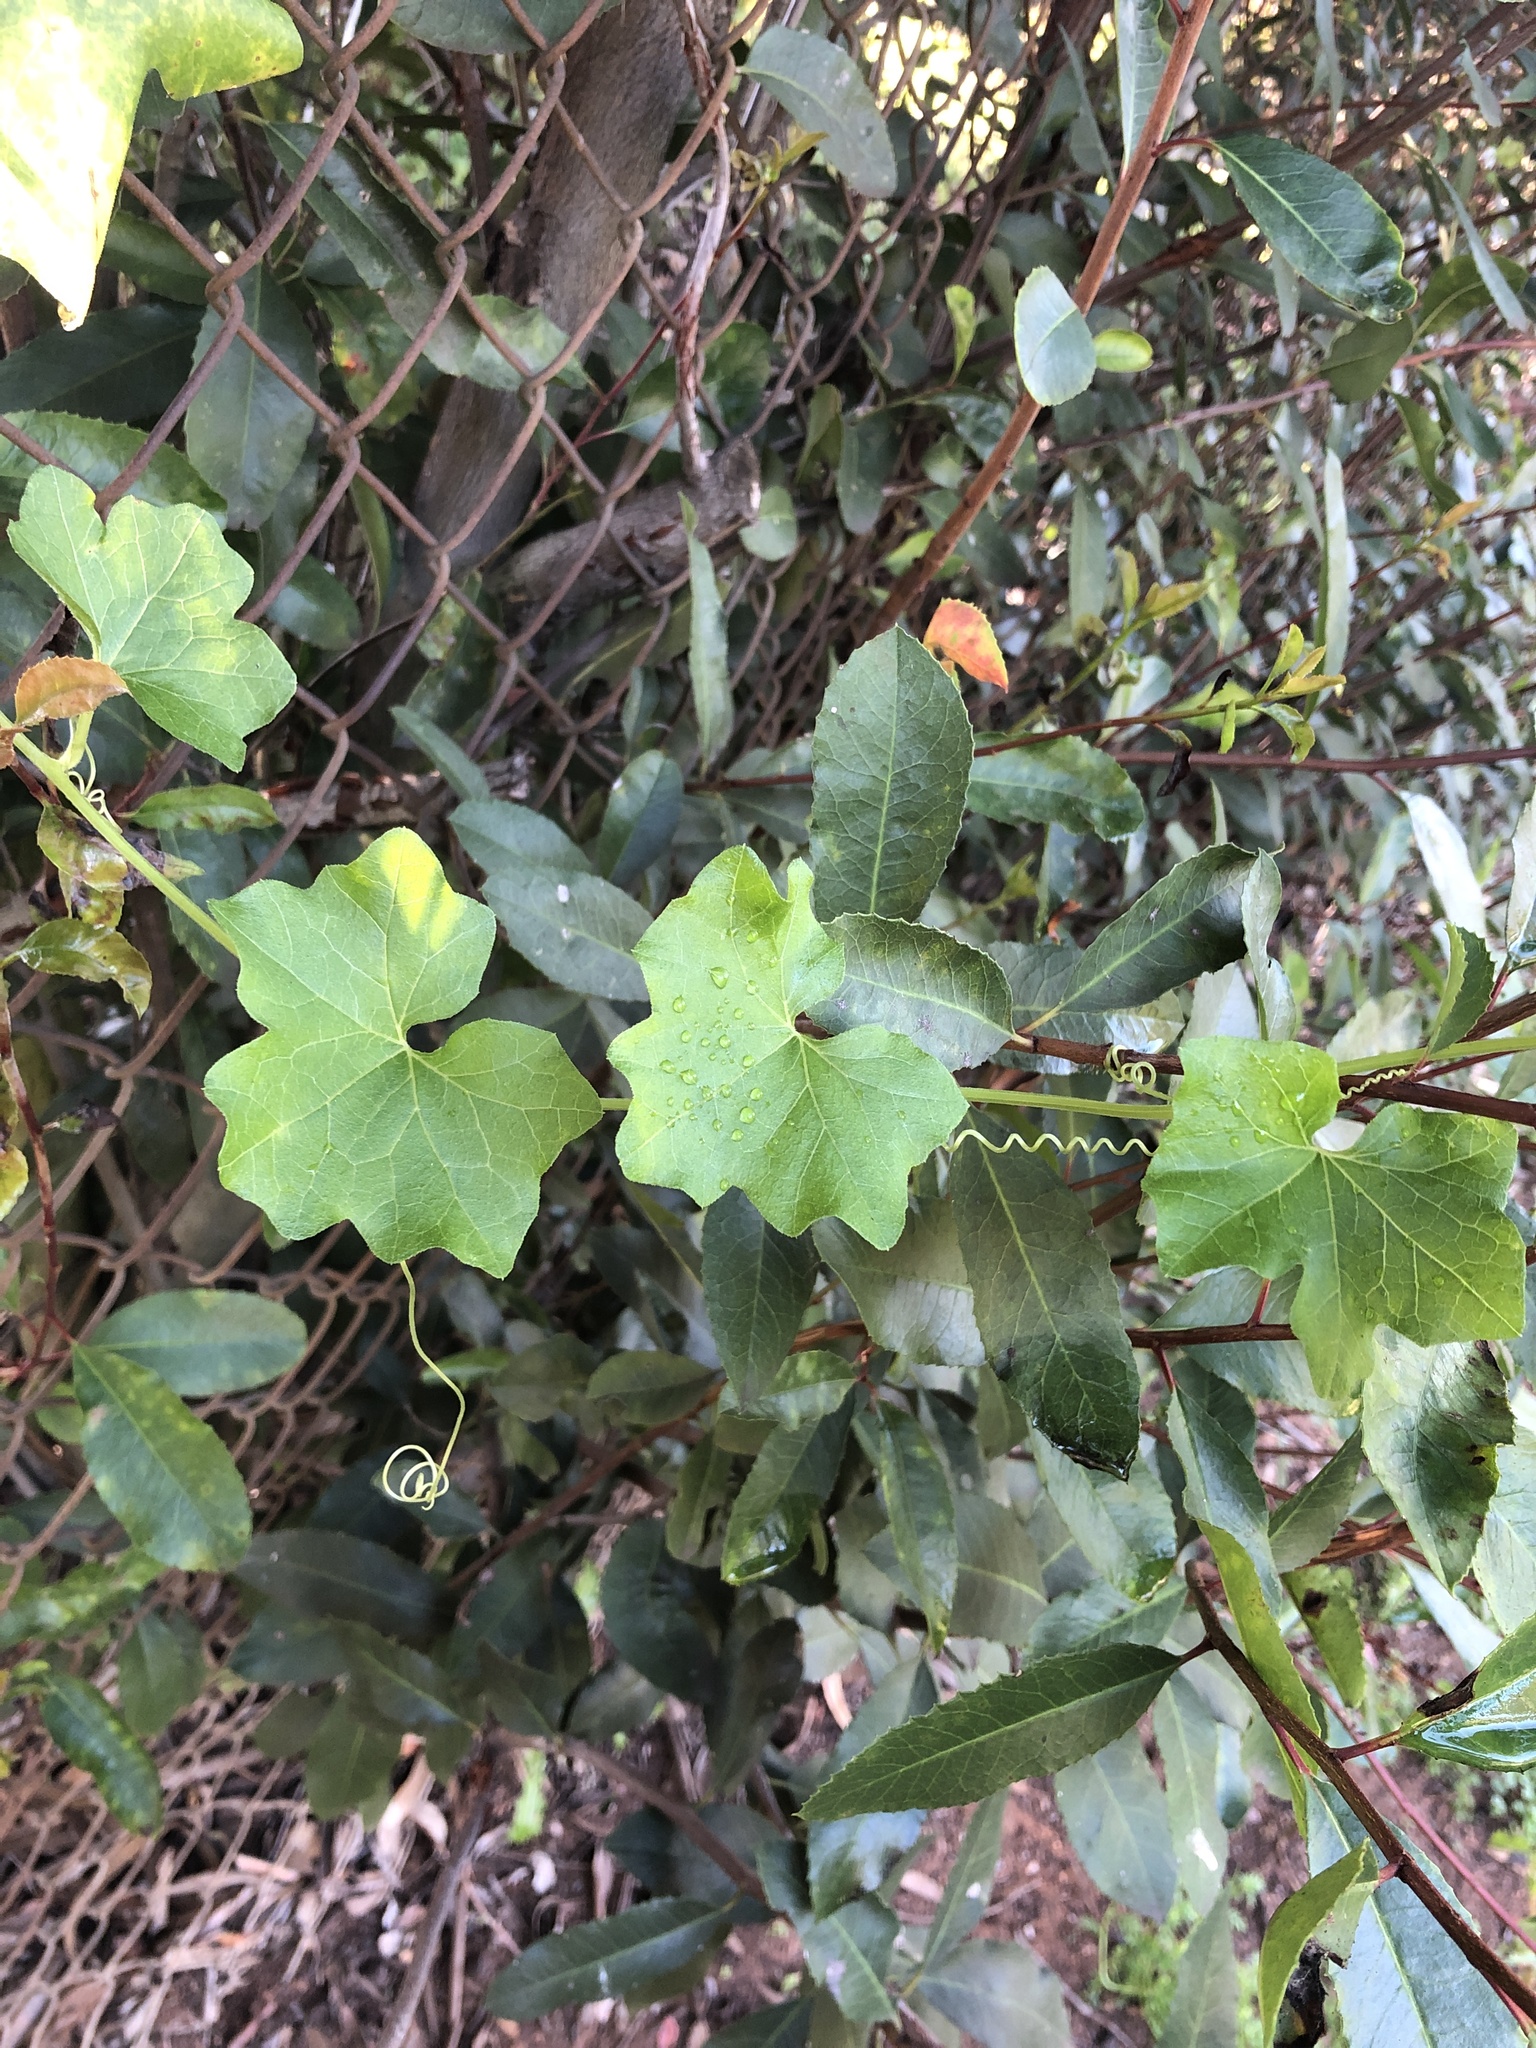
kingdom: Plantae
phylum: Tracheophyta
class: Magnoliopsida
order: Cucurbitales
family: Cucurbitaceae
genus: Marah
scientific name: Marah macrocarpa
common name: Cucamonga manroot
